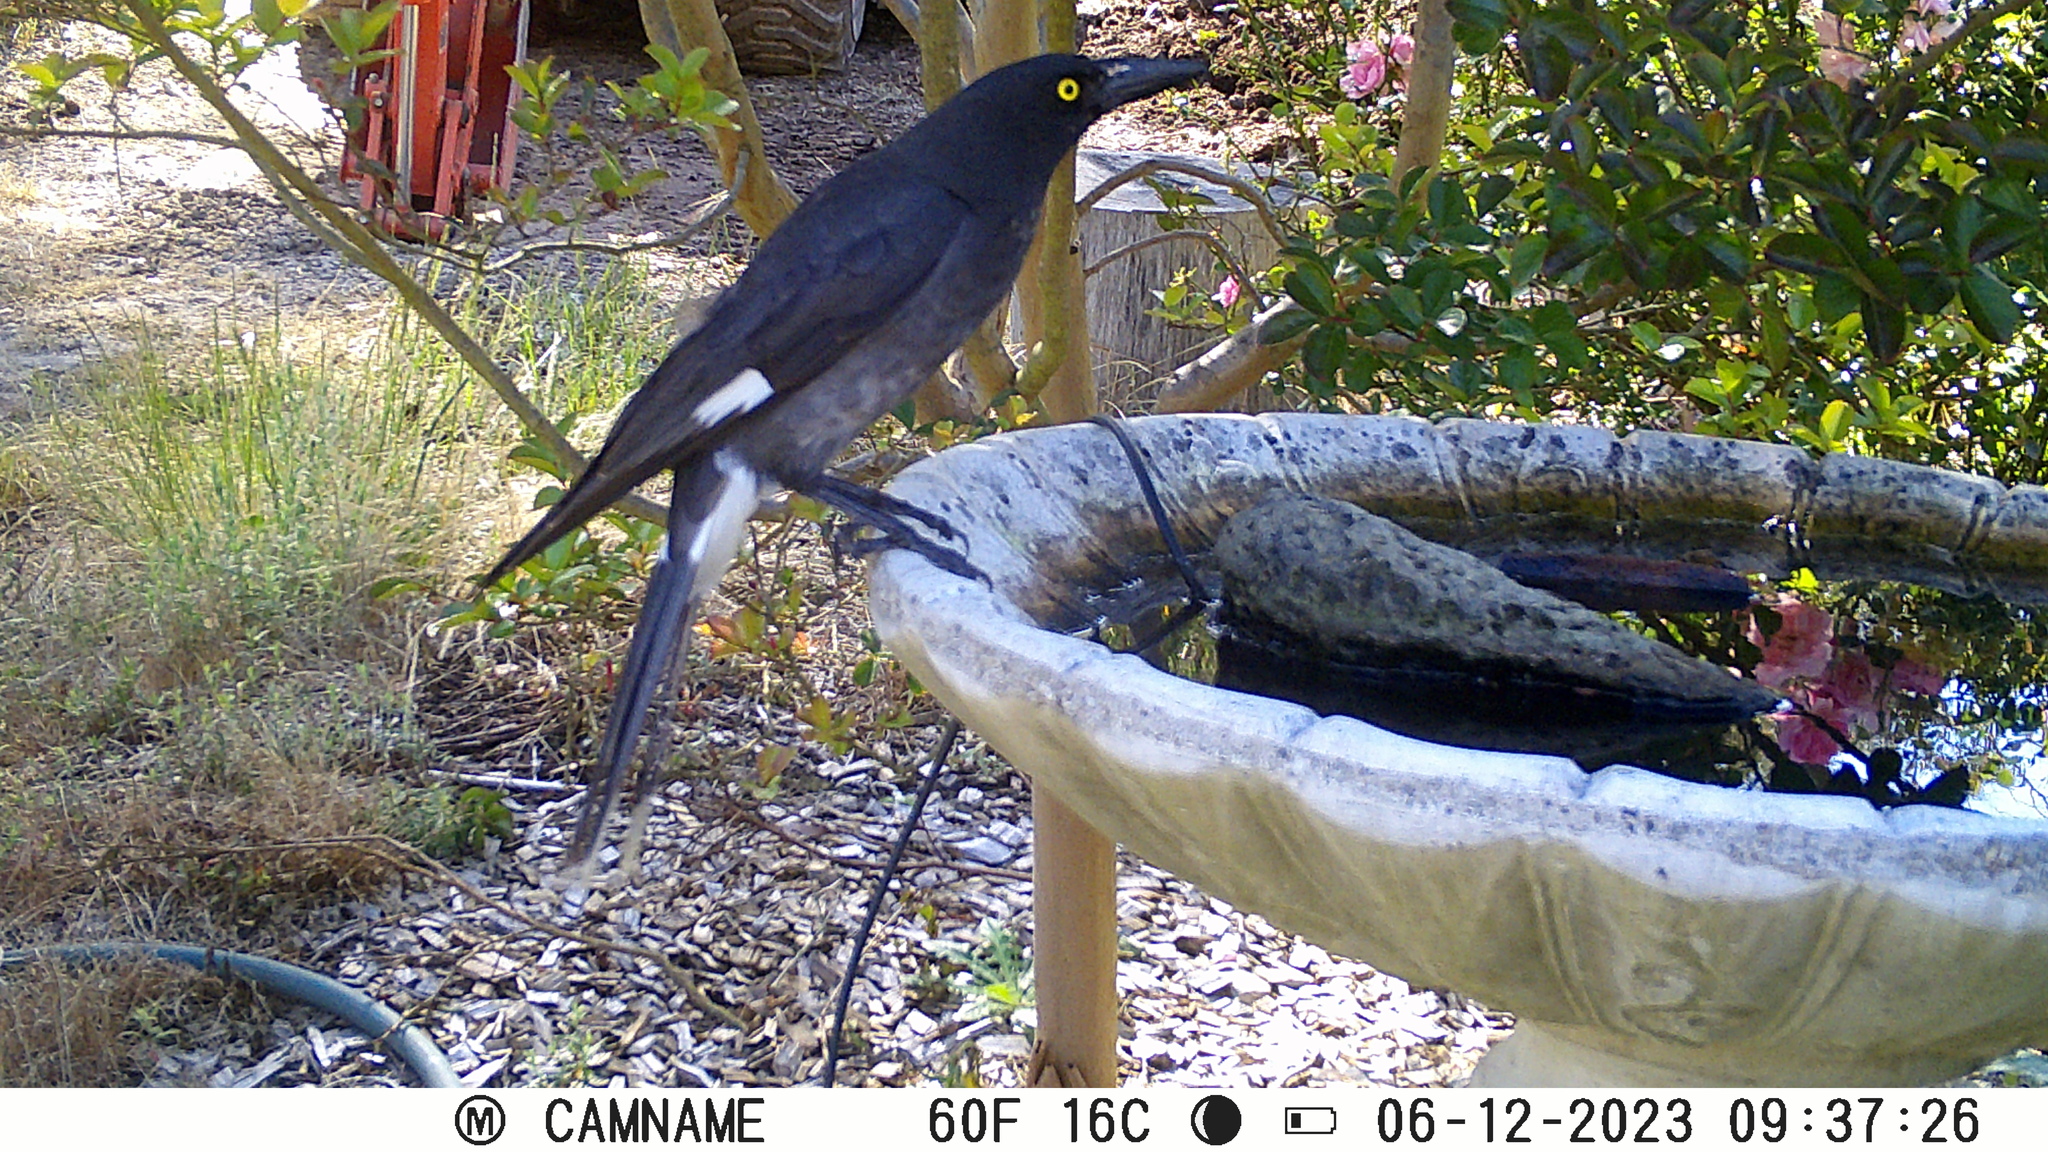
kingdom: Animalia
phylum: Chordata
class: Aves
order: Passeriformes
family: Cracticidae
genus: Strepera
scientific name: Strepera graculina
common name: Pied currawong
